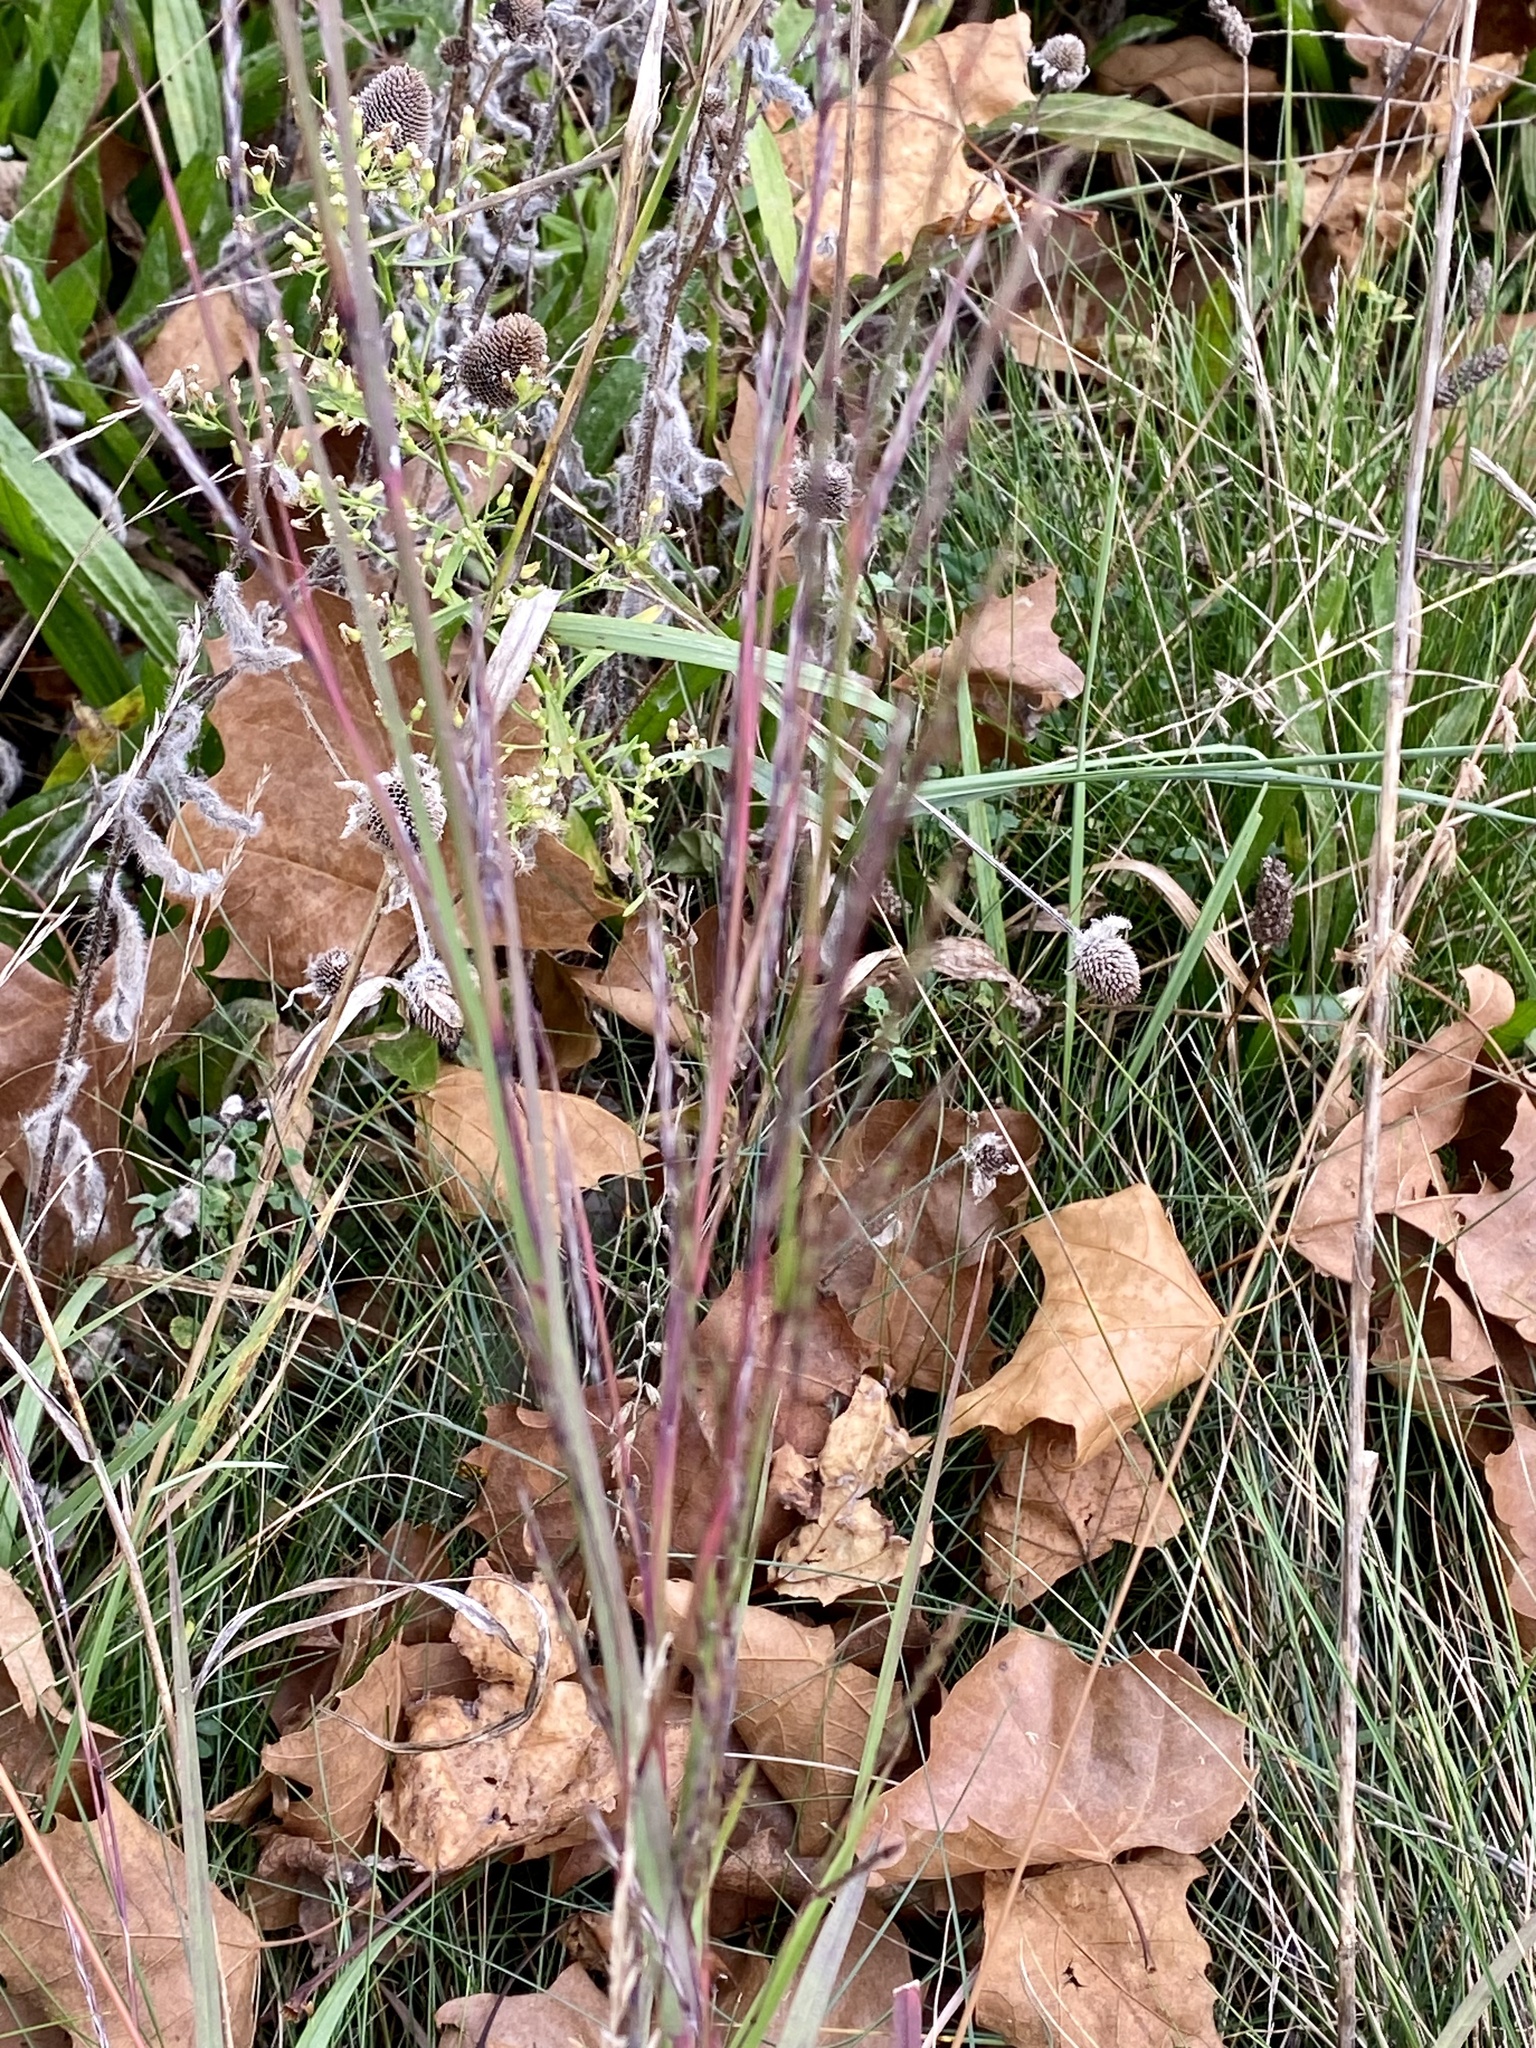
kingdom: Plantae
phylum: Tracheophyta
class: Liliopsida
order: Poales
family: Poaceae
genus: Schizachyrium
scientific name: Schizachyrium scoparium
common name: Little bluestem
